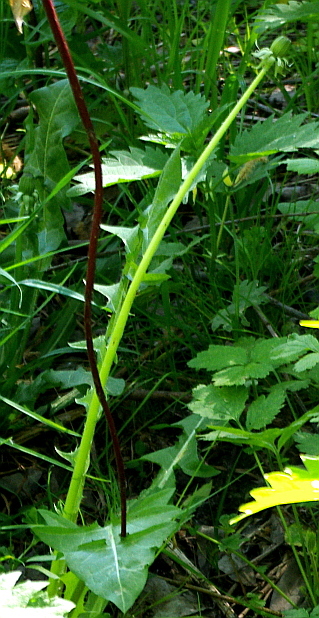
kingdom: Plantae
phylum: Tracheophyta
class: Magnoliopsida
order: Asterales
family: Asteraceae
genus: Taraxacum
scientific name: Taraxacum officinale
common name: Common dandelion
